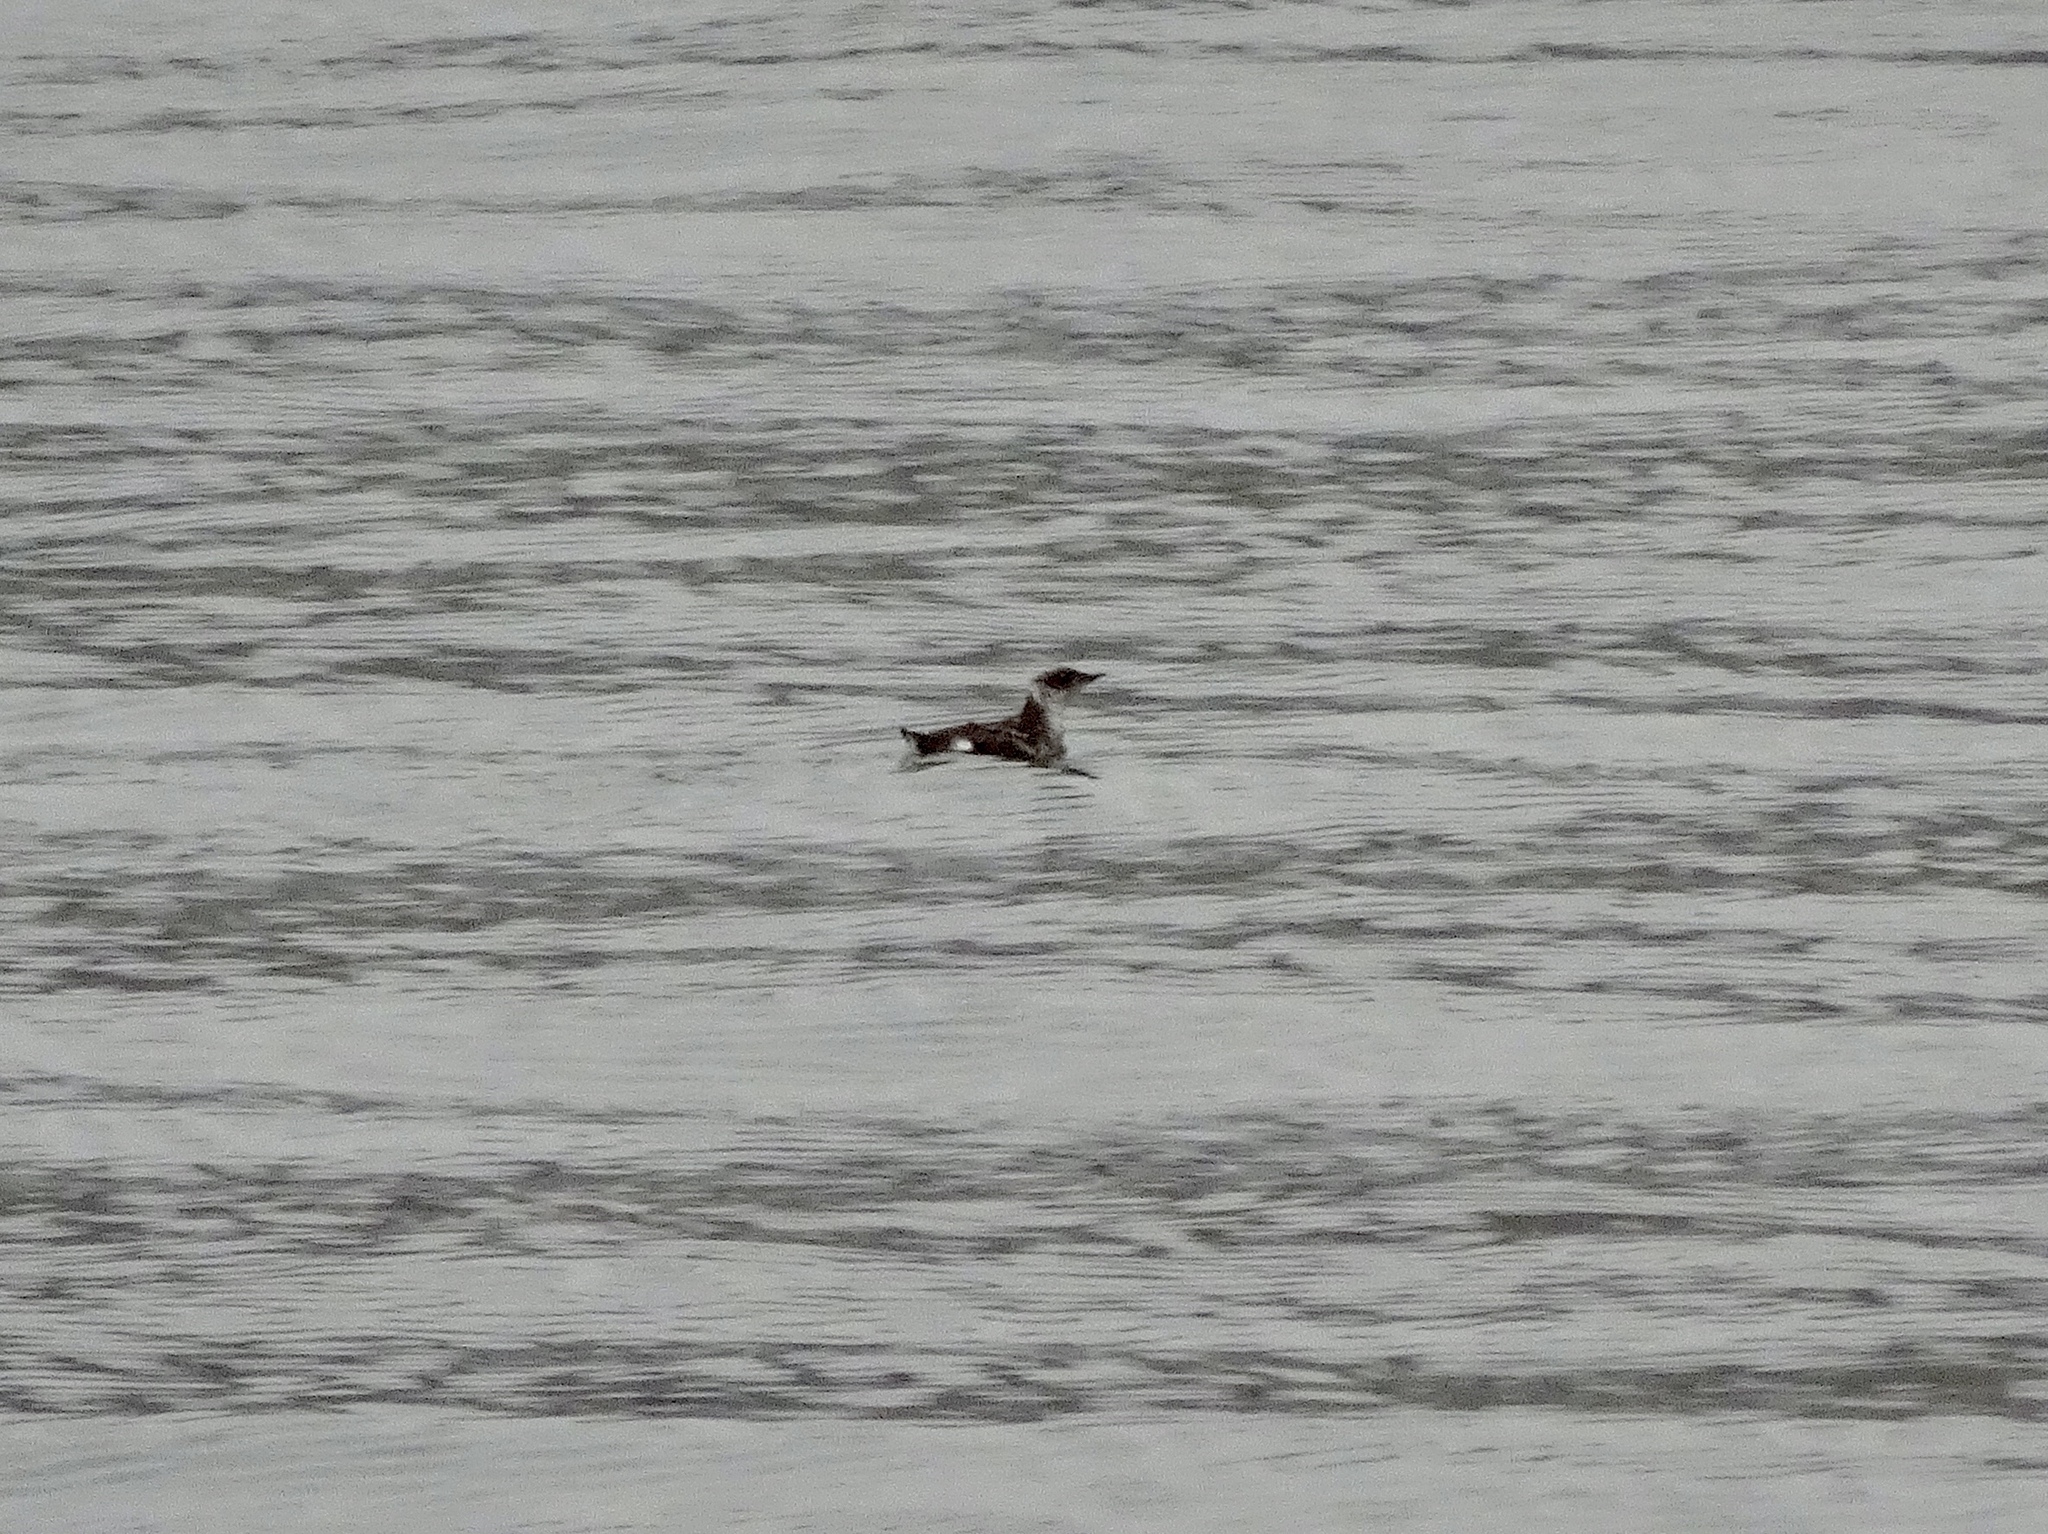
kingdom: Animalia
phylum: Chordata
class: Aves
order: Charadriiformes
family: Alcidae
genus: Brachyramphus
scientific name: Brachyramphus marmoratus
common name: Marbled murrelet
